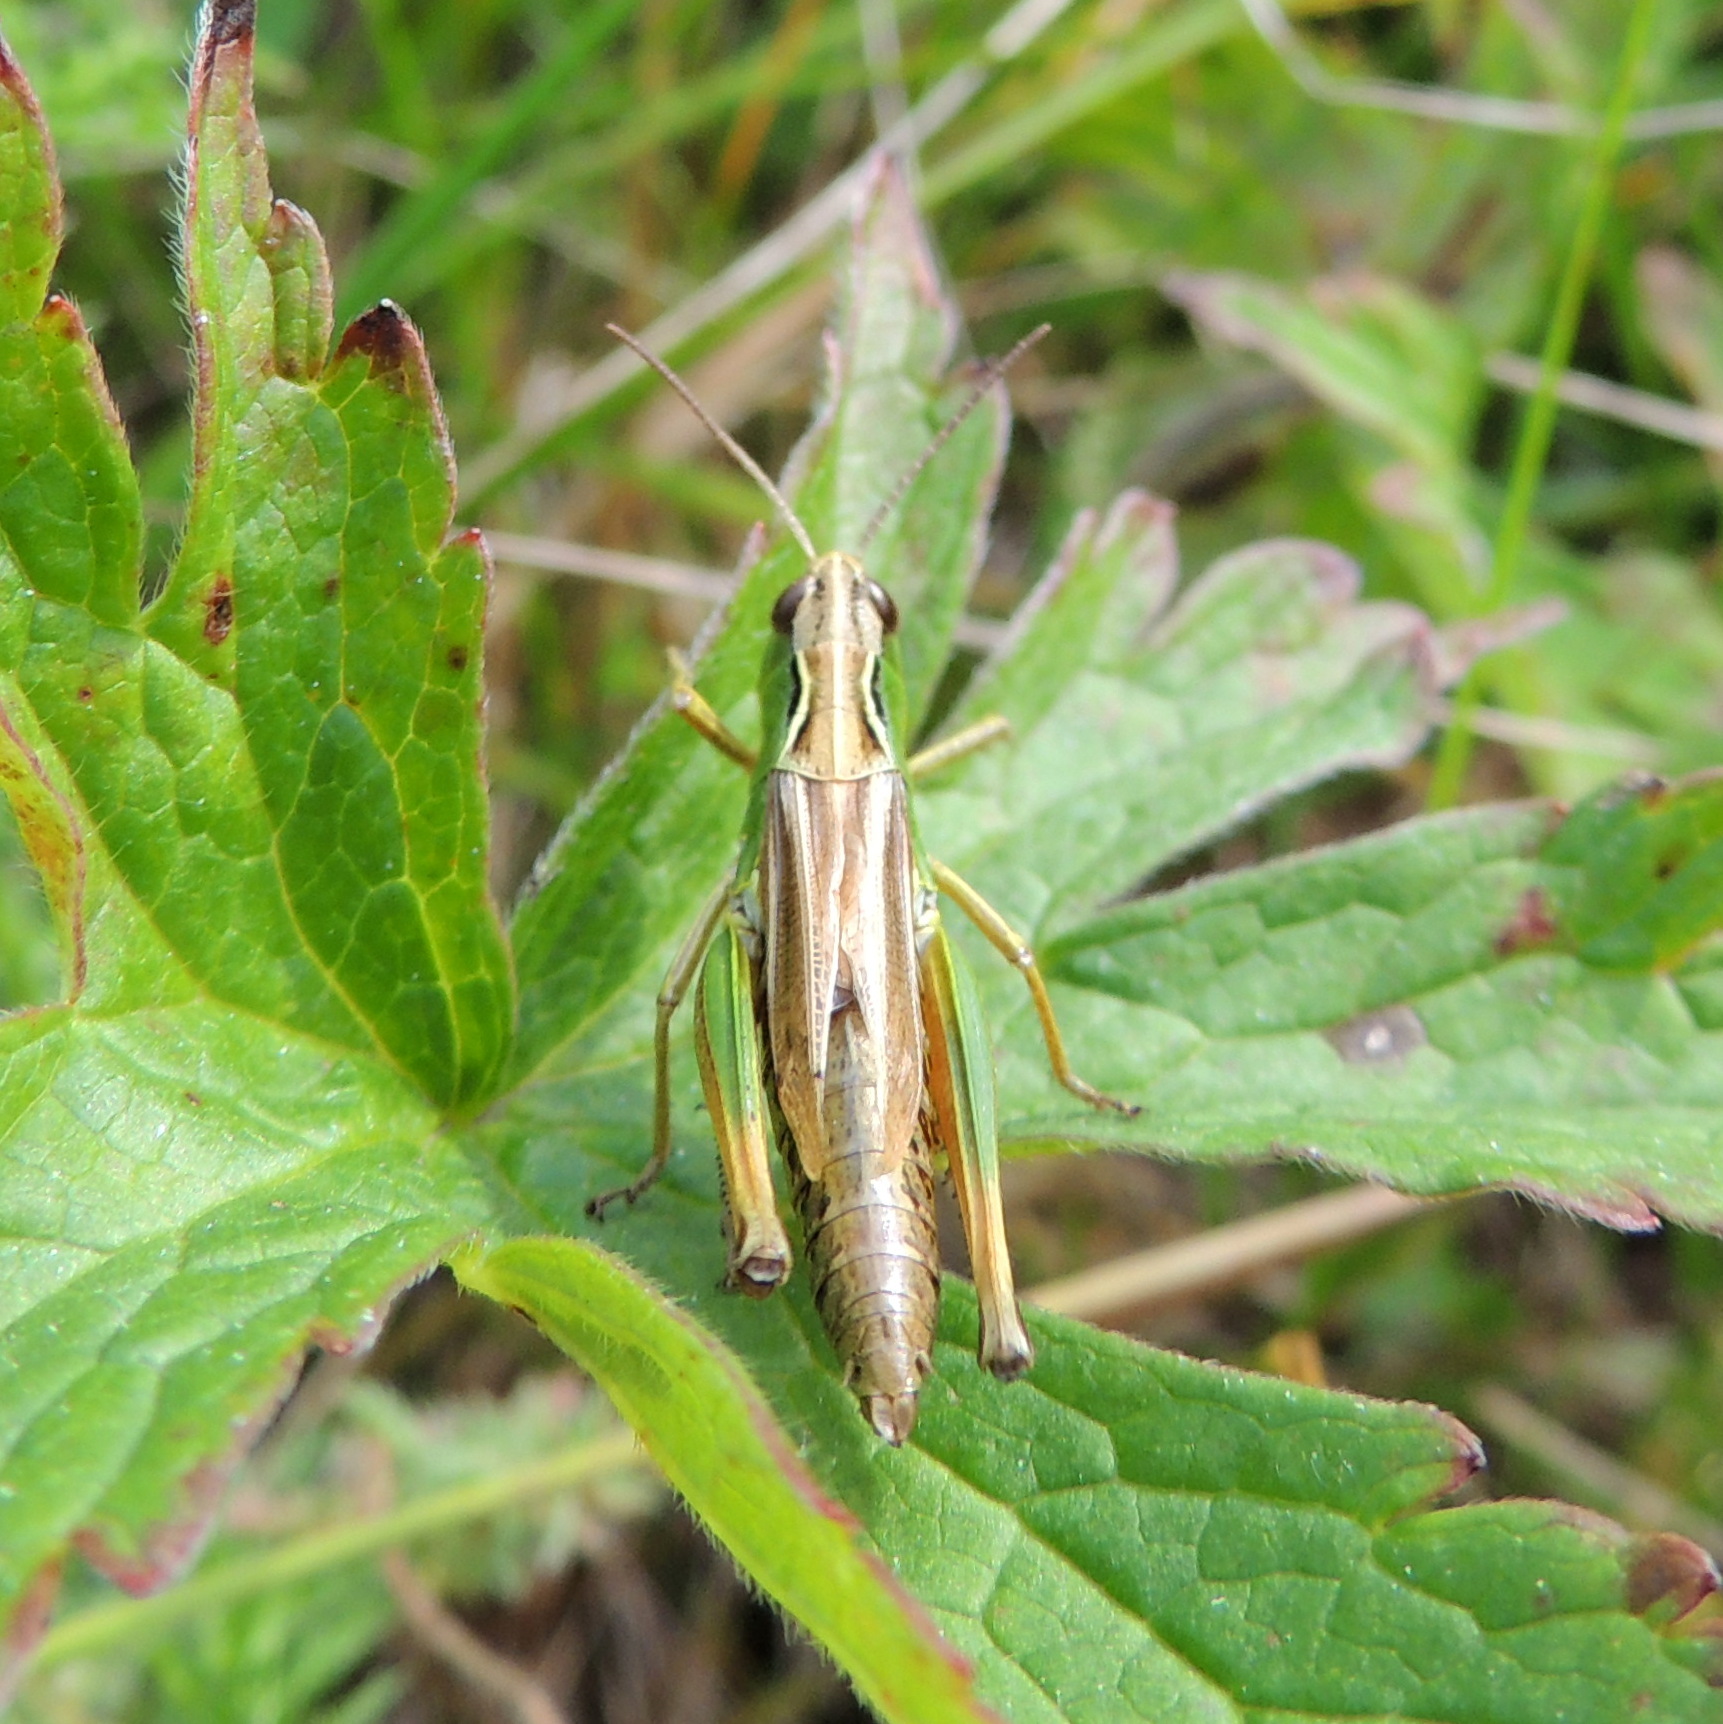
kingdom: Animalia
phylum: Arthropoda
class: Insecta
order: Orthoptera
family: Acrididae
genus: Pseudochorthippus
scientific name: Pseudochorthippus montanus
